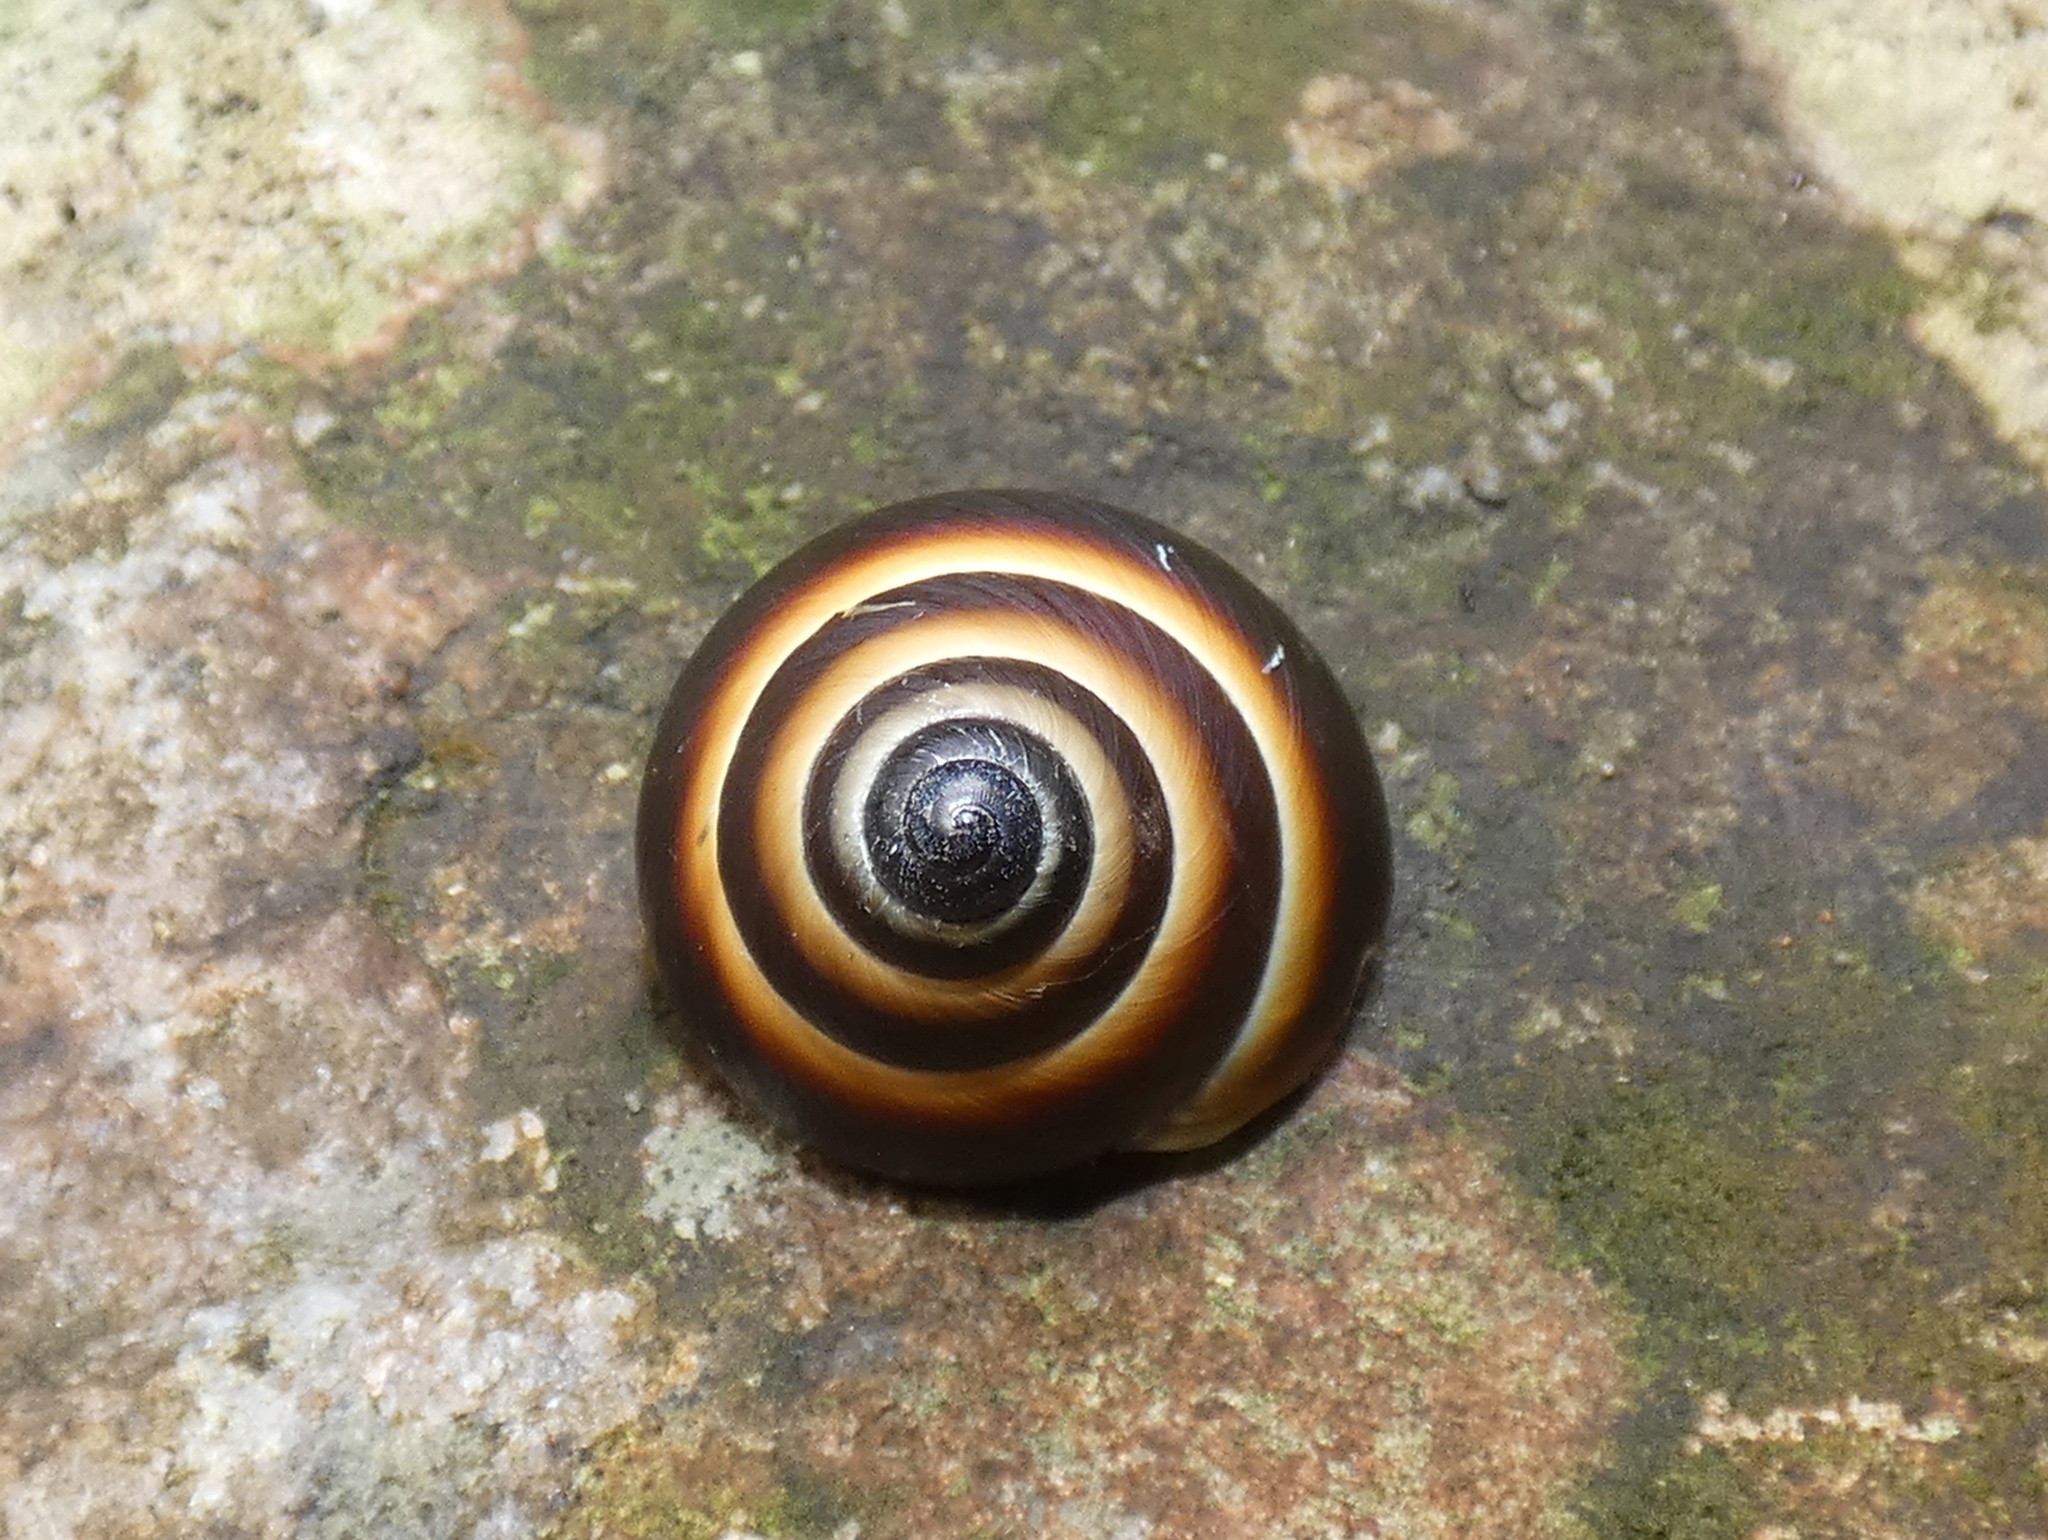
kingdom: Animalia
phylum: Mollusca
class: Gastropoda
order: Stylommatophora
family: Camaenidae
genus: Noctepuna
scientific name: Noctepuna mayana
